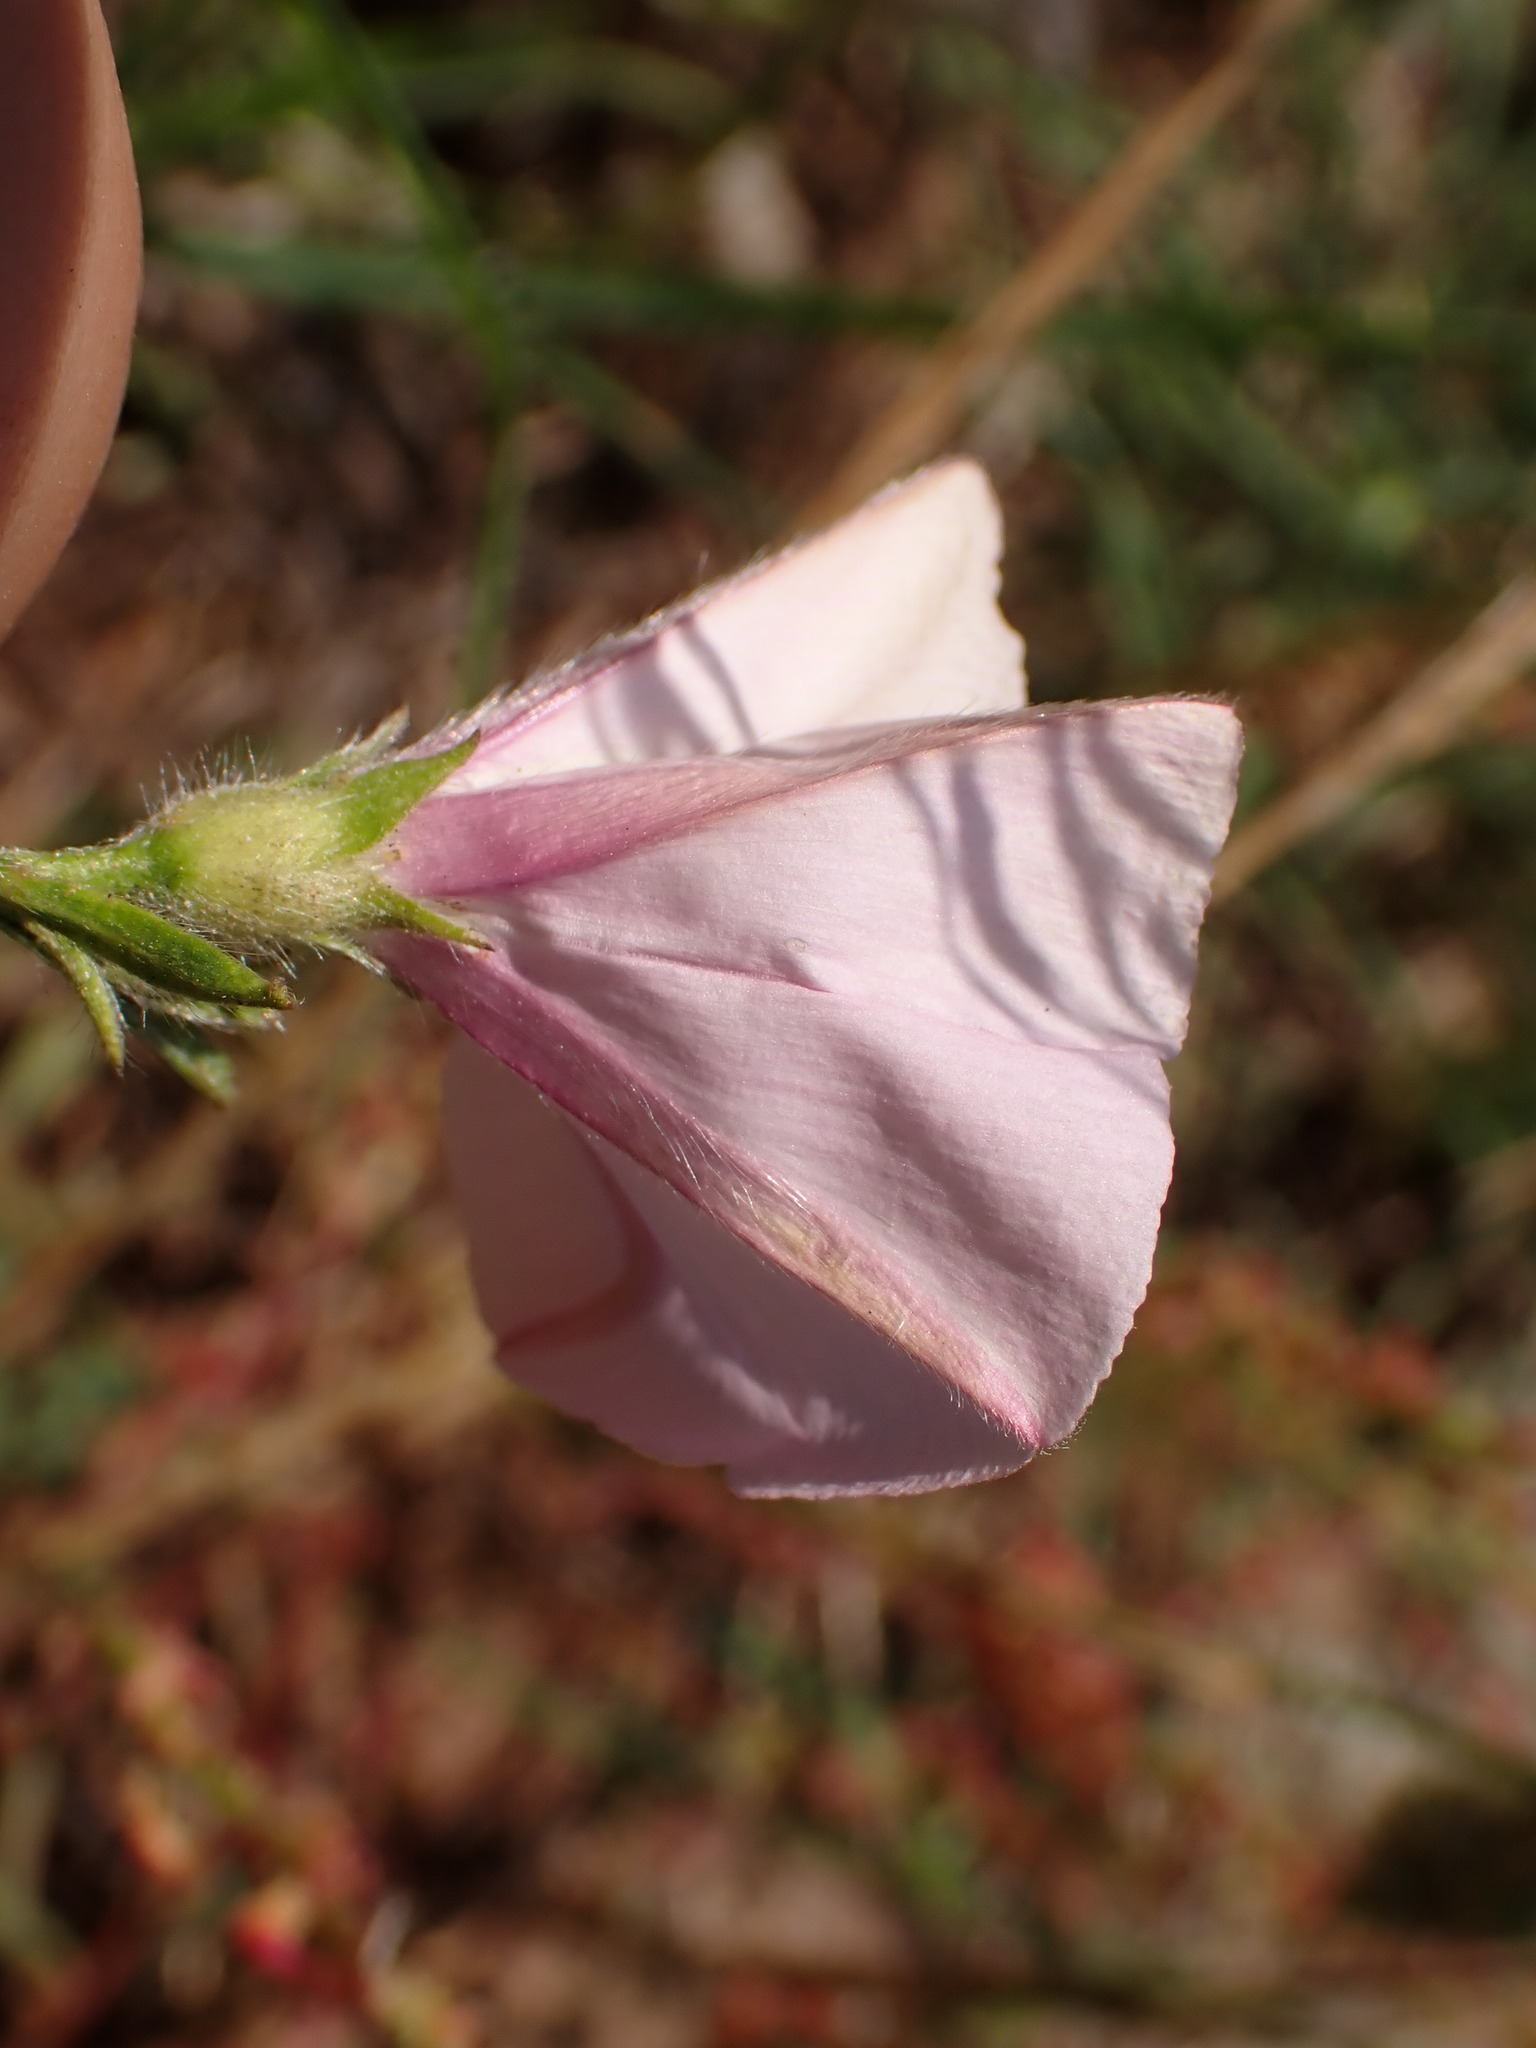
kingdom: Plantae
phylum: Tracheophyta
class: Magnoliopsida
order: Solanales
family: Convolvulaceae
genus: Convolvulus
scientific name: Convolvulus cantabrica
